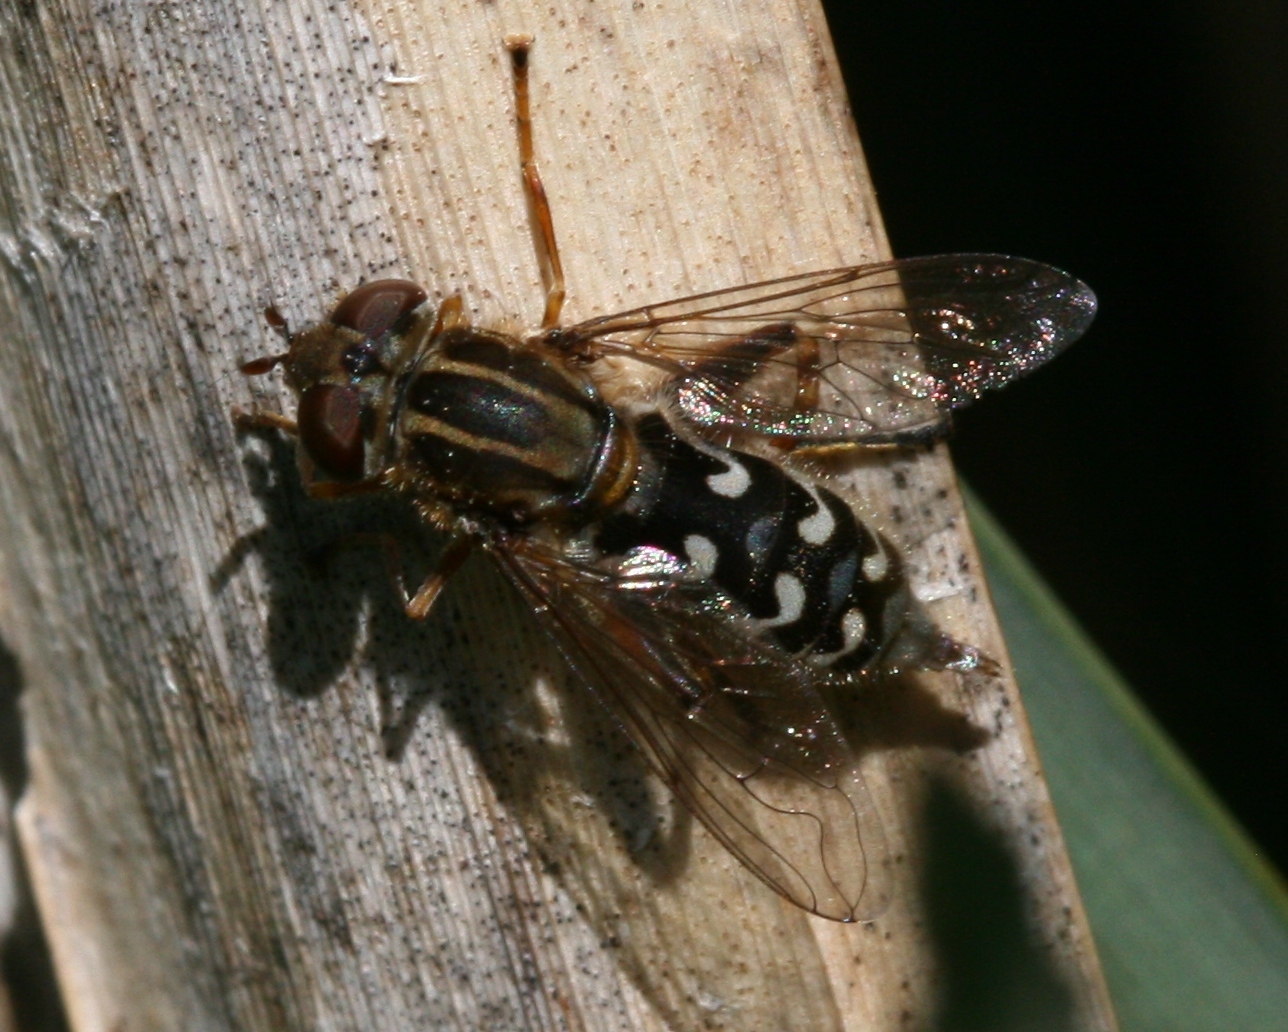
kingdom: Animalia
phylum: Arthropoda
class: Insecta
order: Diptera
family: Syrphidae
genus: Anasimyia
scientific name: Anasimyia contracta
